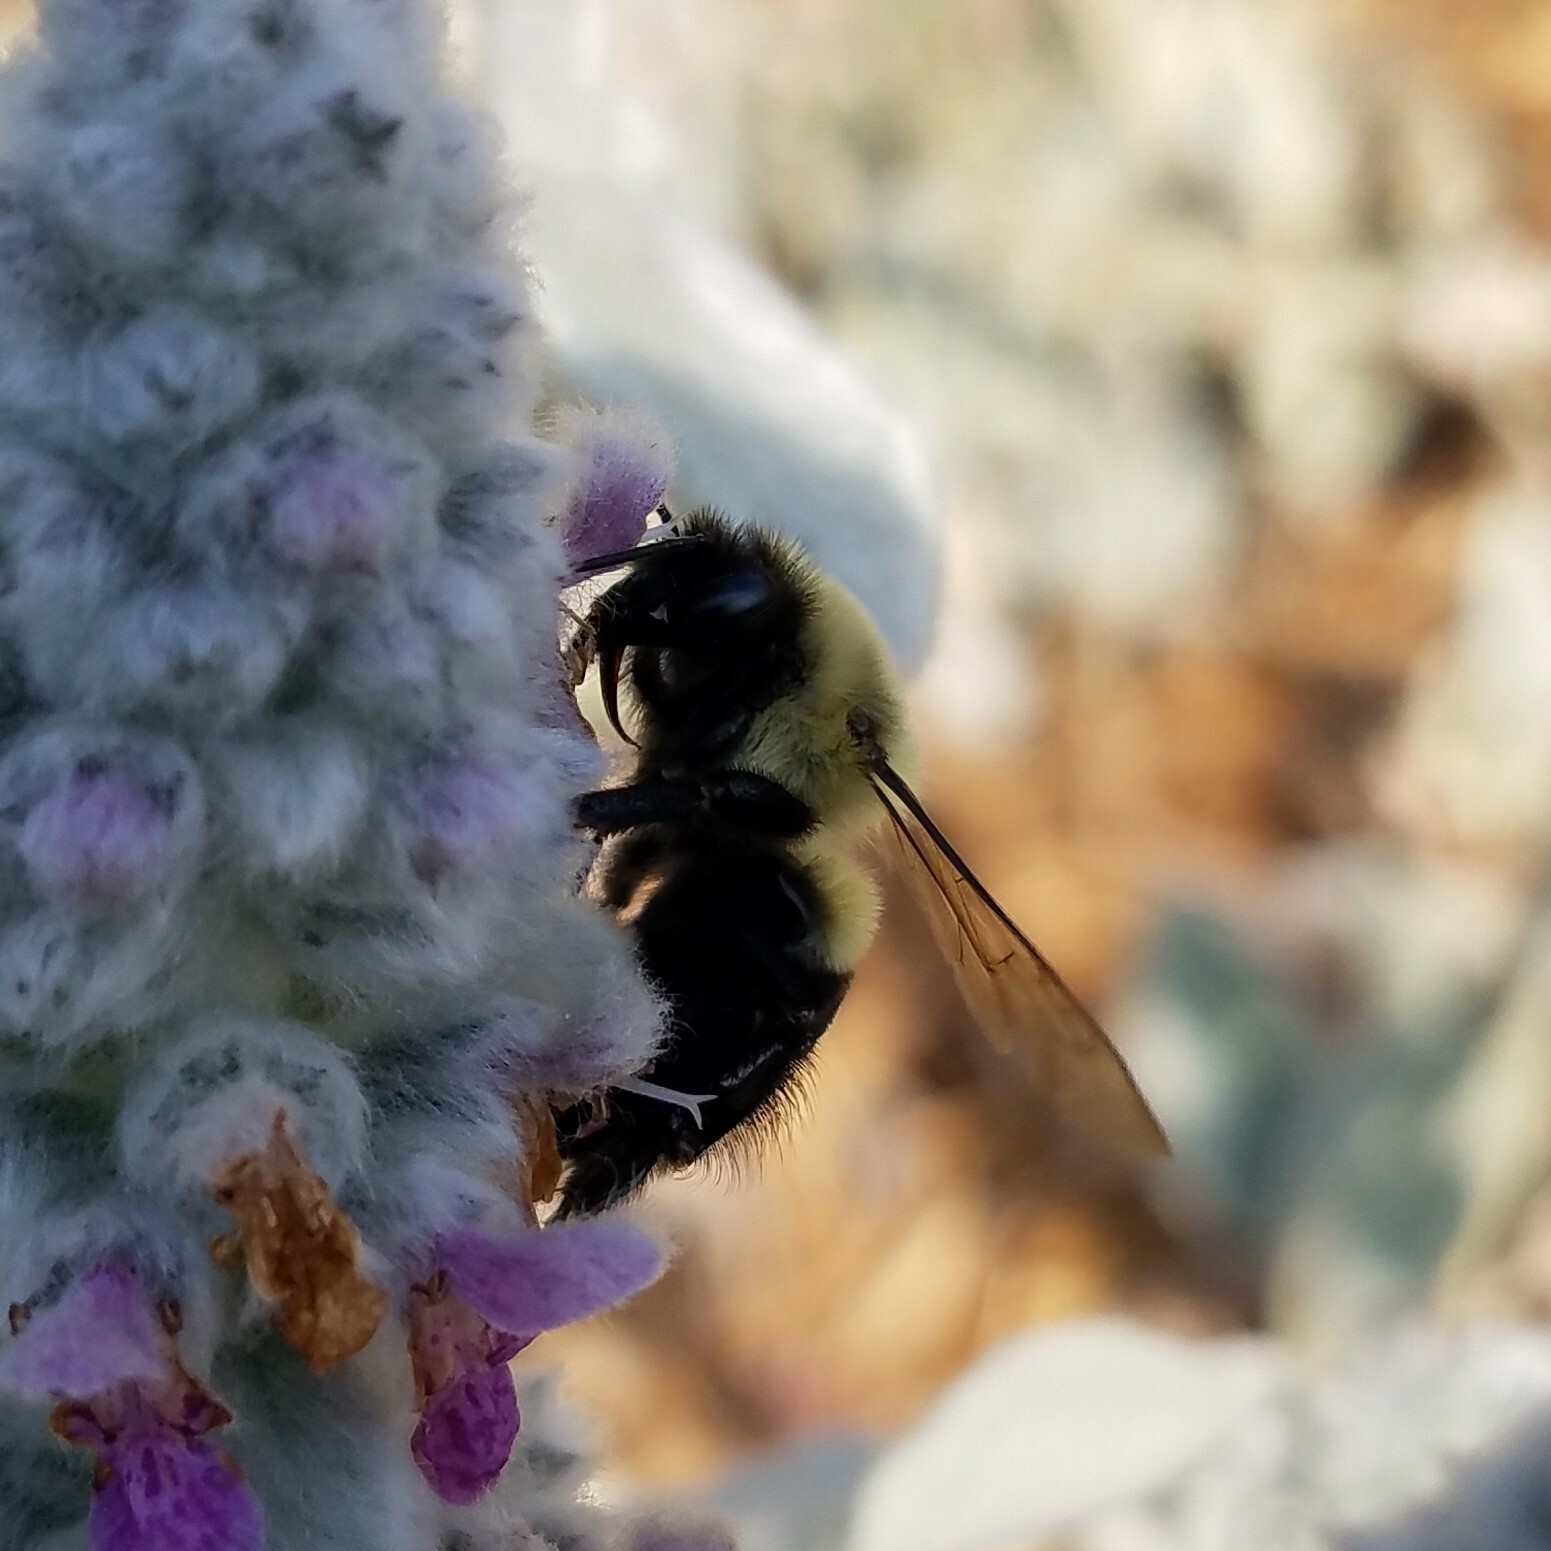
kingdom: Animalia
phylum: Arthropoda
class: Insecta
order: Hymenoptera
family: Apidae
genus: Bombus
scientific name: Bombus impatiens
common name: Common eastern bumble bee
